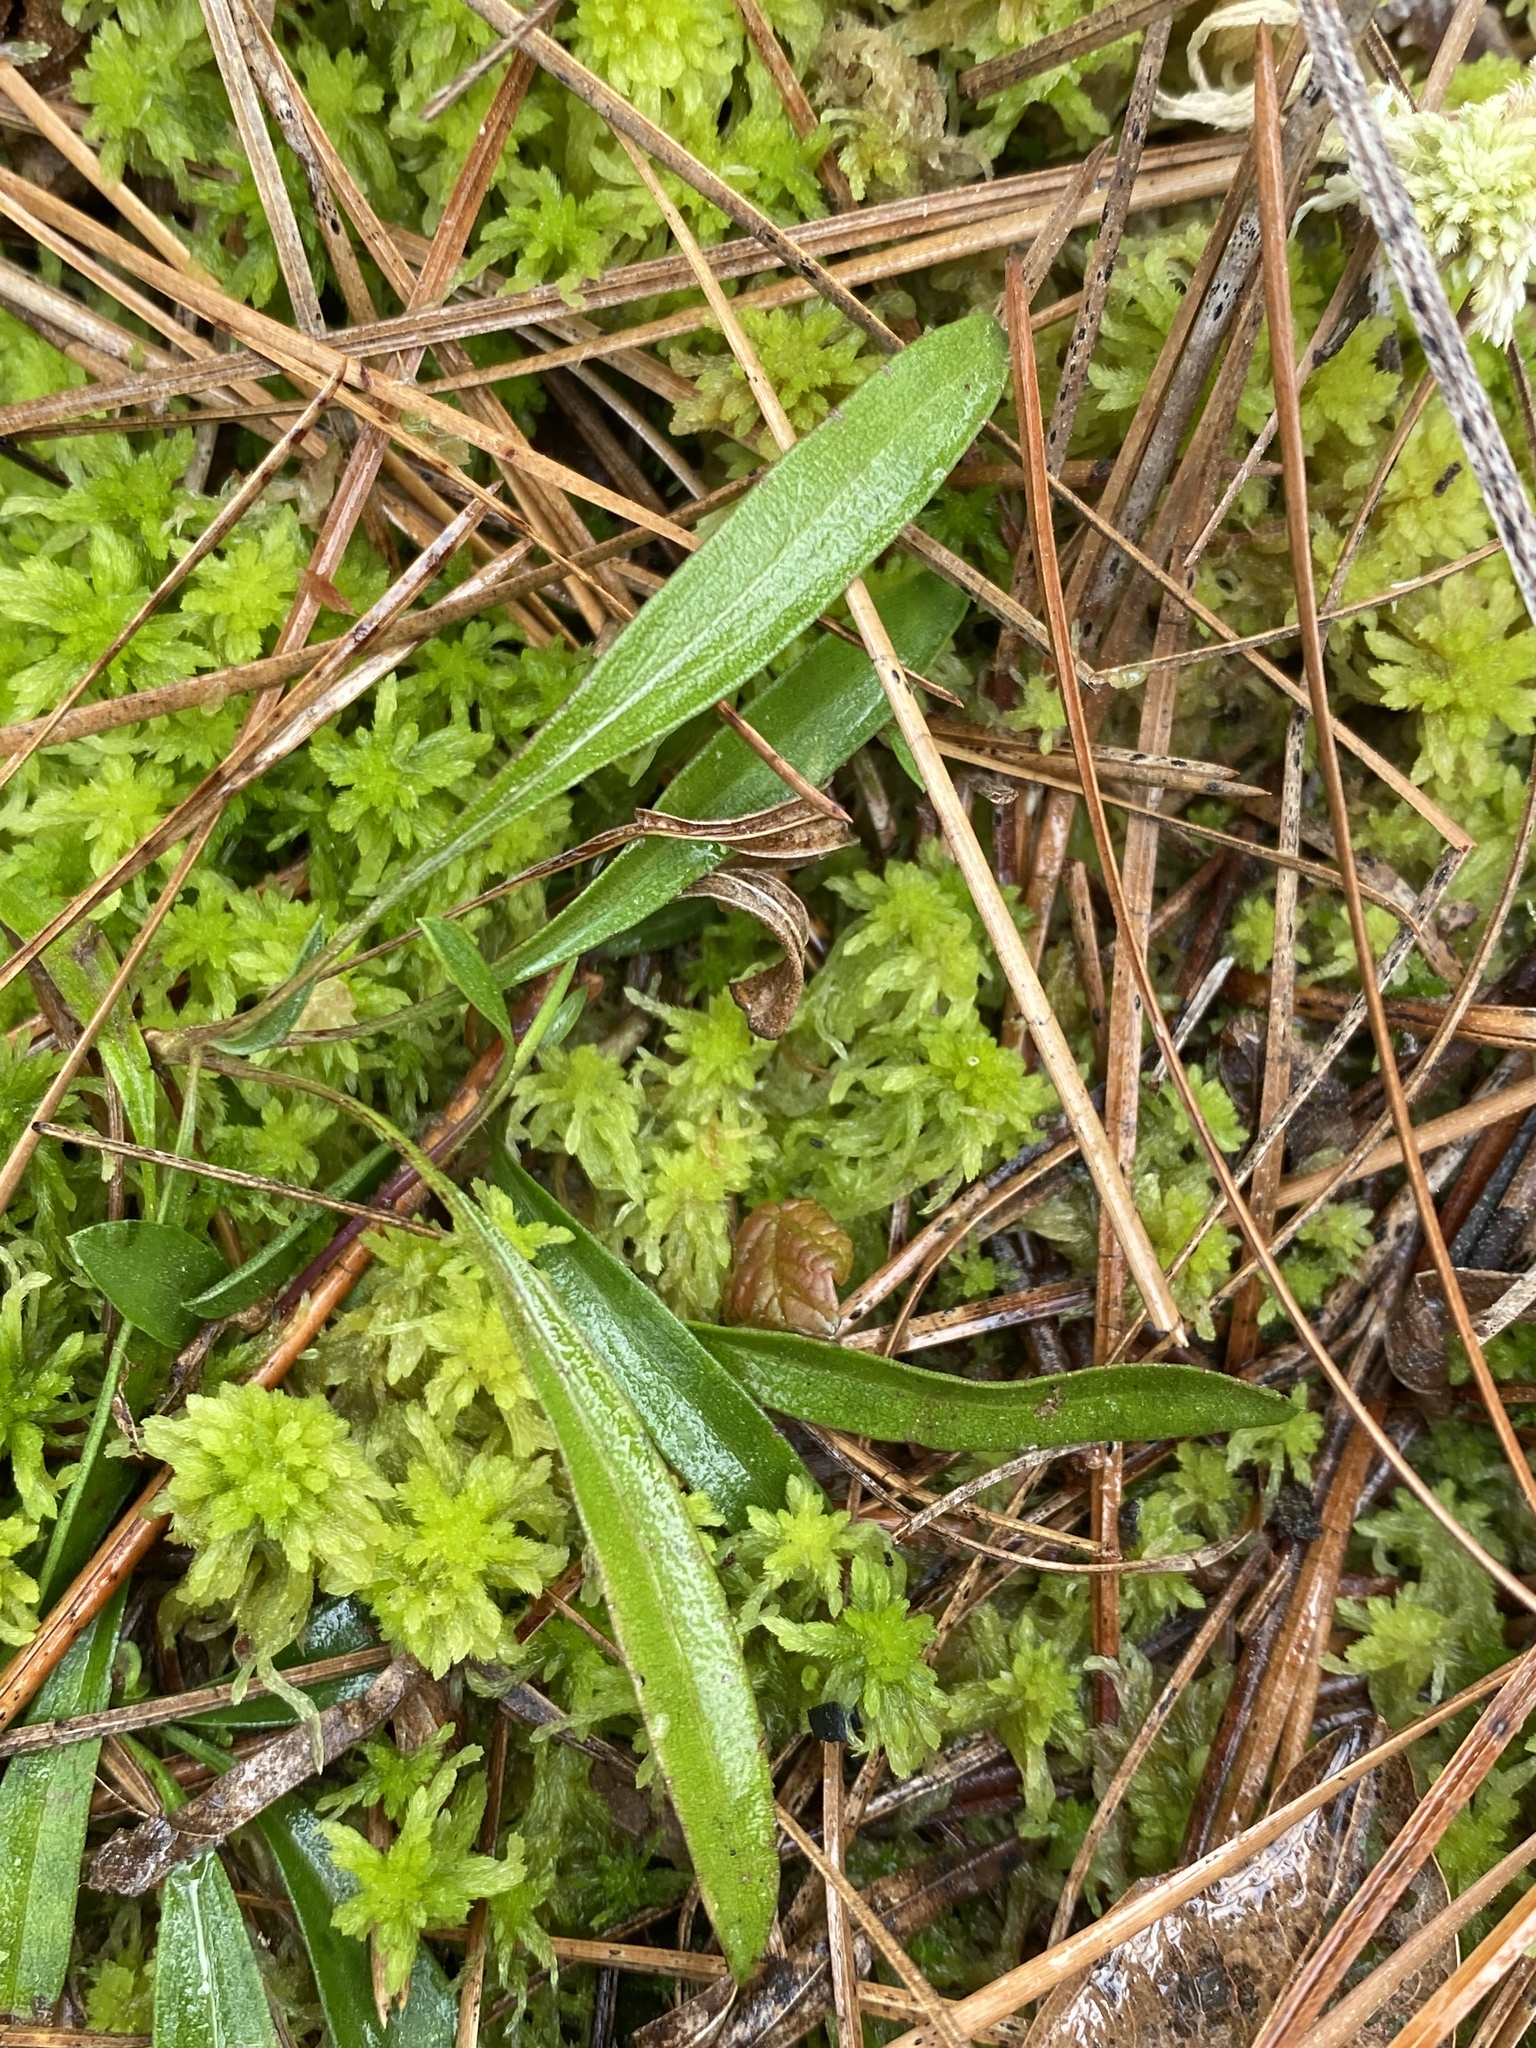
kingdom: Plantae
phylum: Tracheophyta
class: Magnoliopsida
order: Asterales
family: Asteraceae
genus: Eurybia
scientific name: Eurybia paludosa
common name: Southern swamp aster
